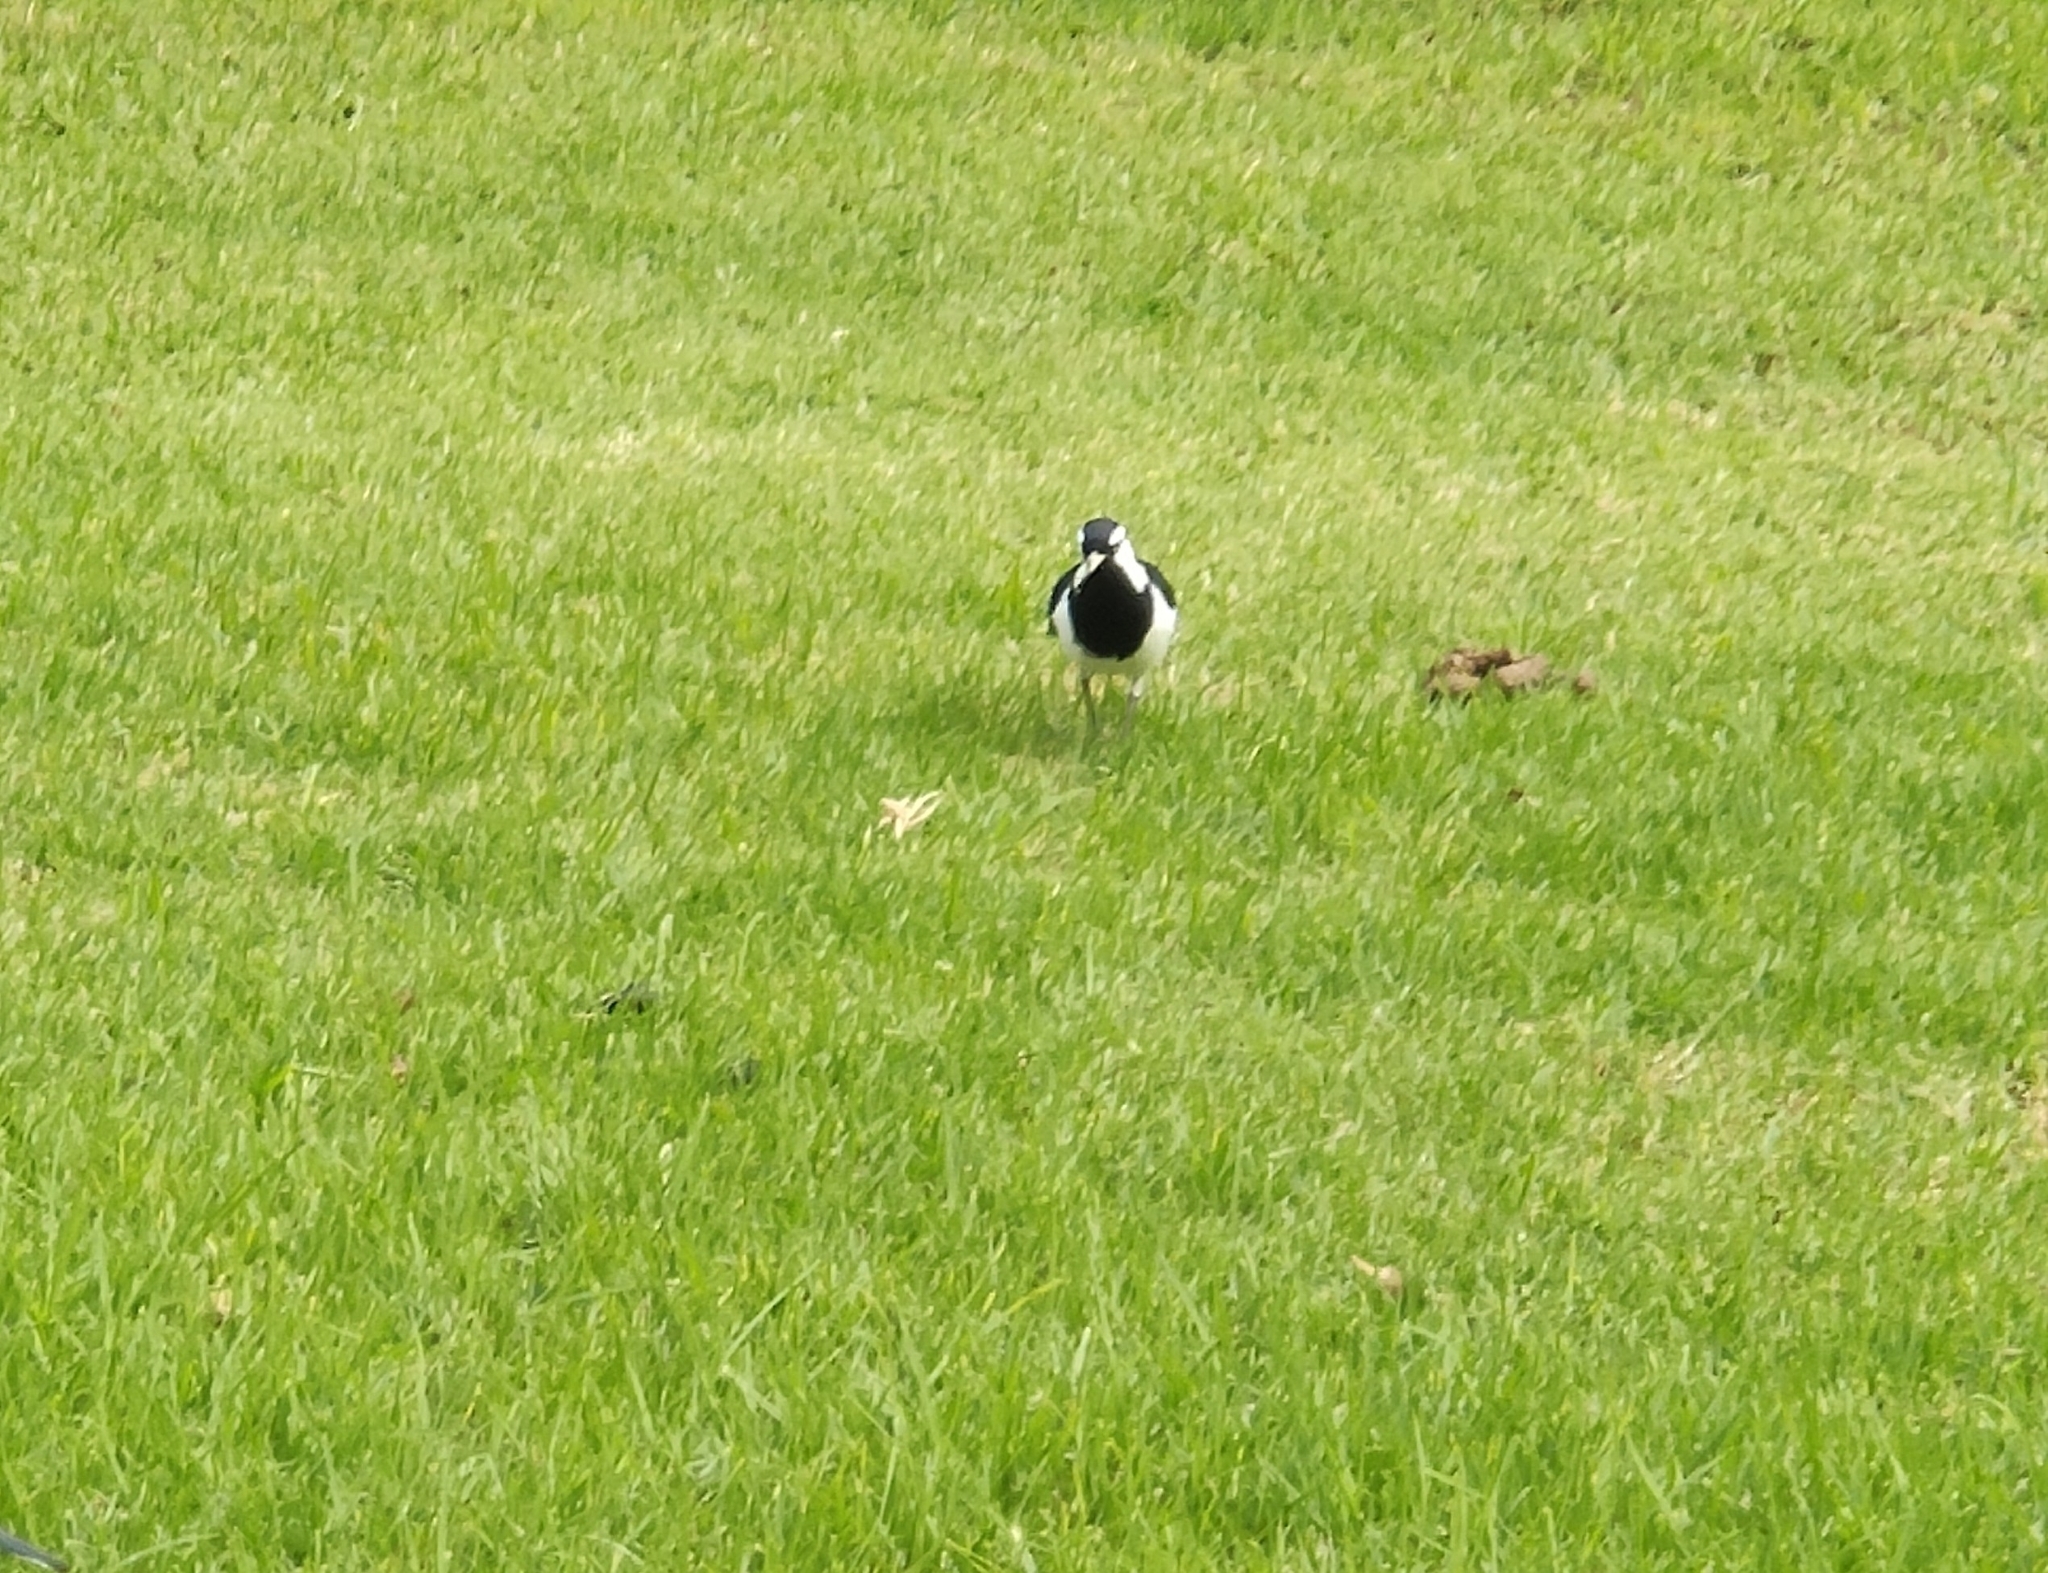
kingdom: Animalia
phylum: Chordata
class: Aves
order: Passeriformes
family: Monarchidae
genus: Grallina
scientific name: Grallina cyanoleuca
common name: Magpie-lark
